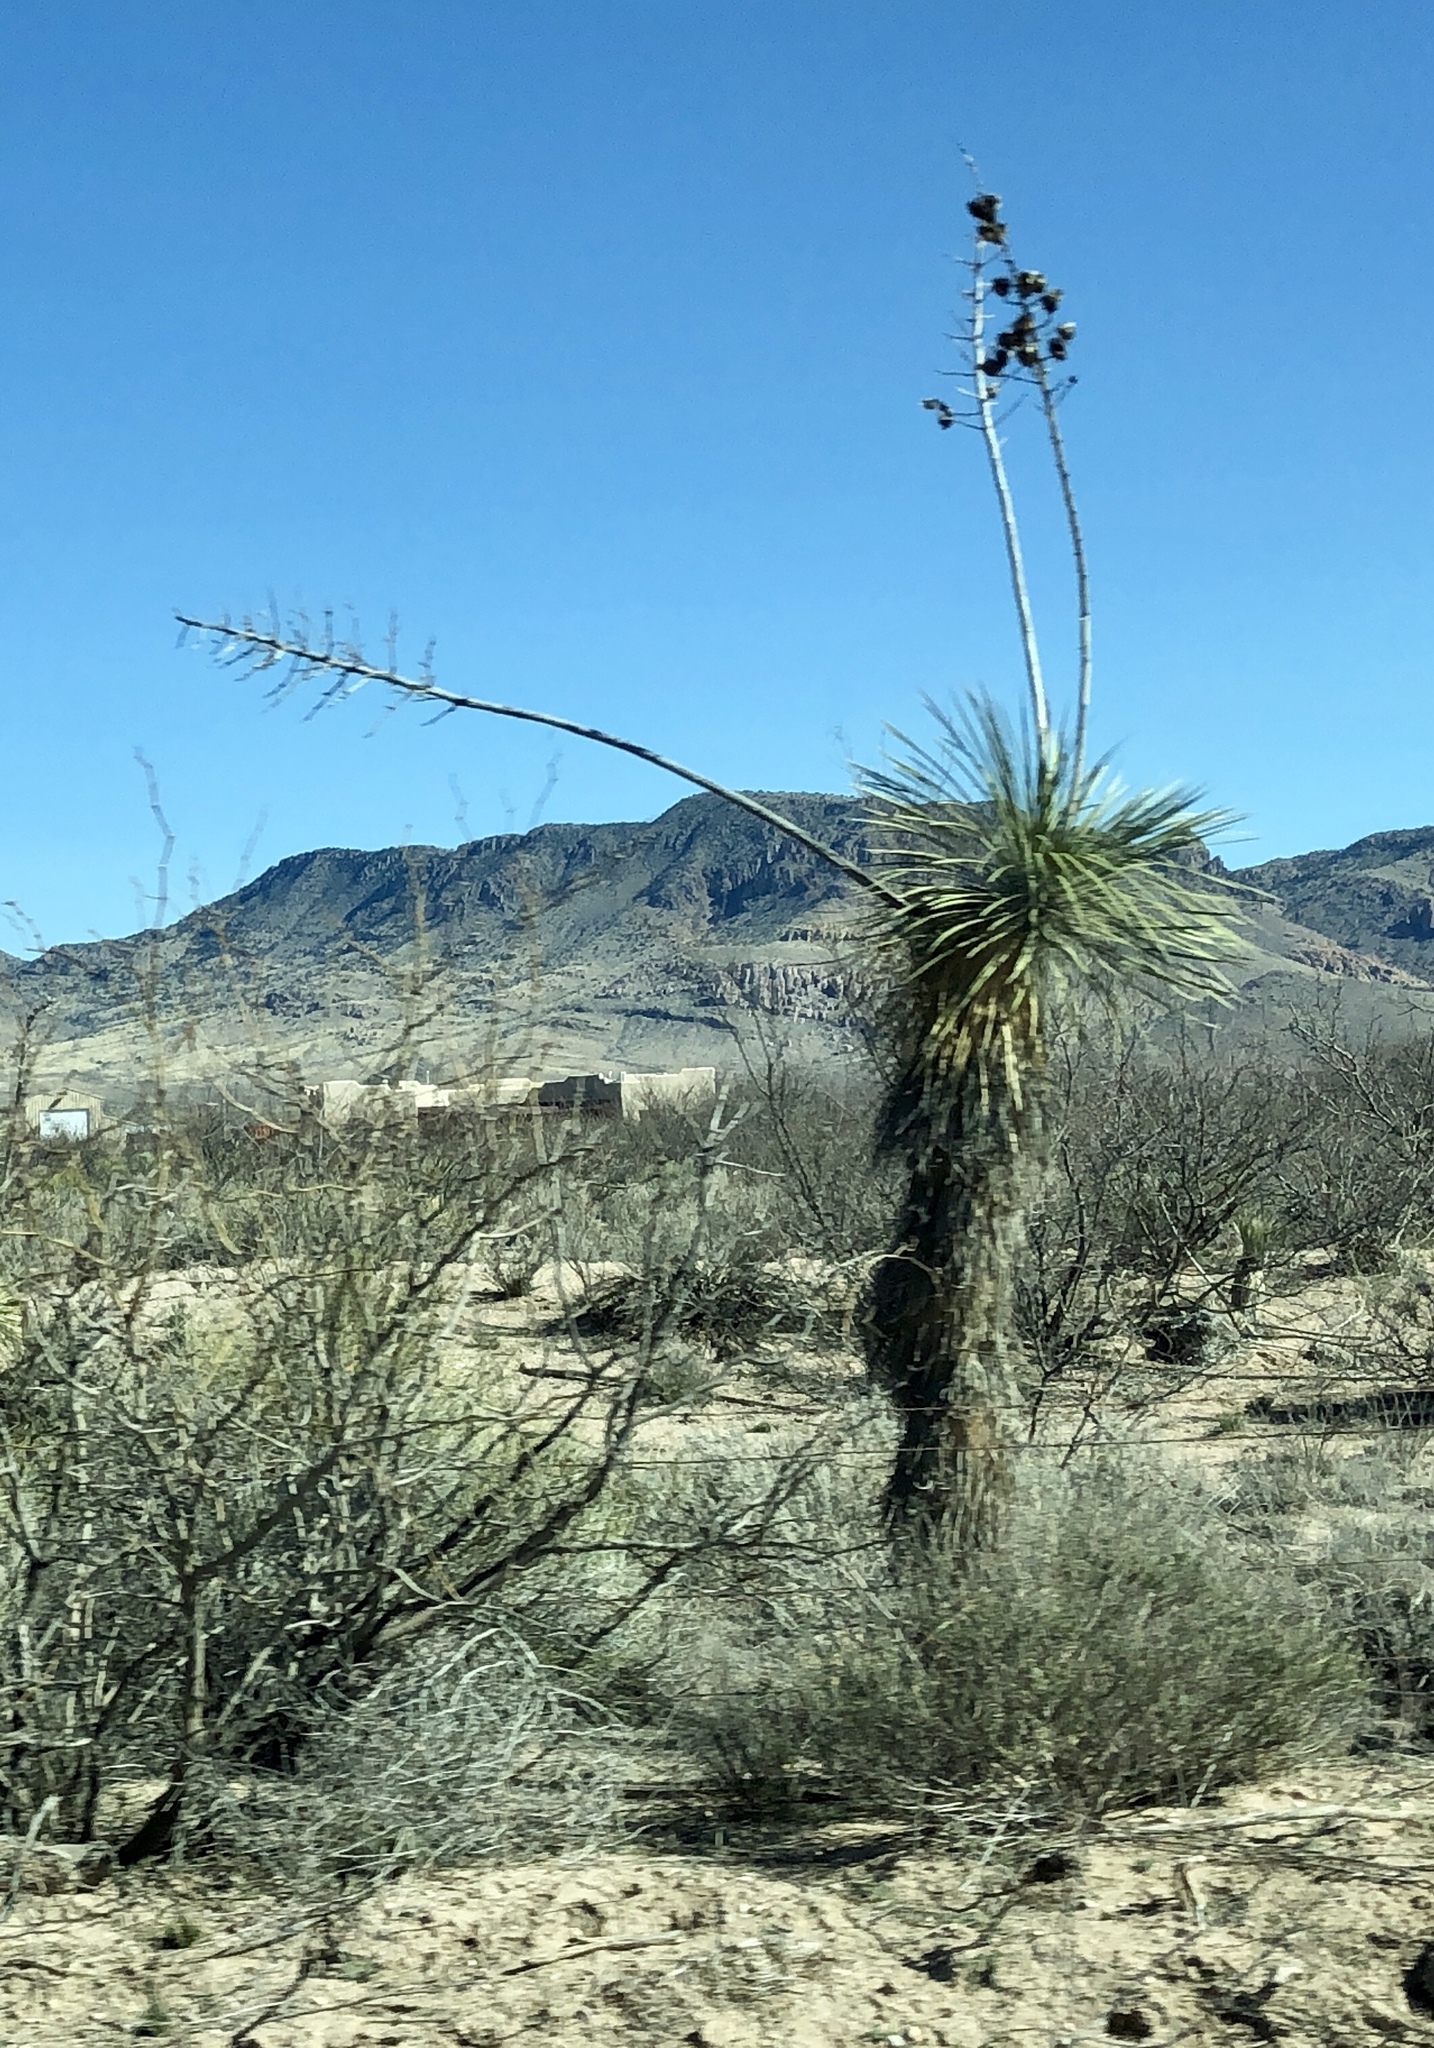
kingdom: Plantae
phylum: Tracheophyta
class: Liliopsida
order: Asparagales
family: Asparagaceae
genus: Yucca
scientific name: Yucca elata
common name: Palmella
